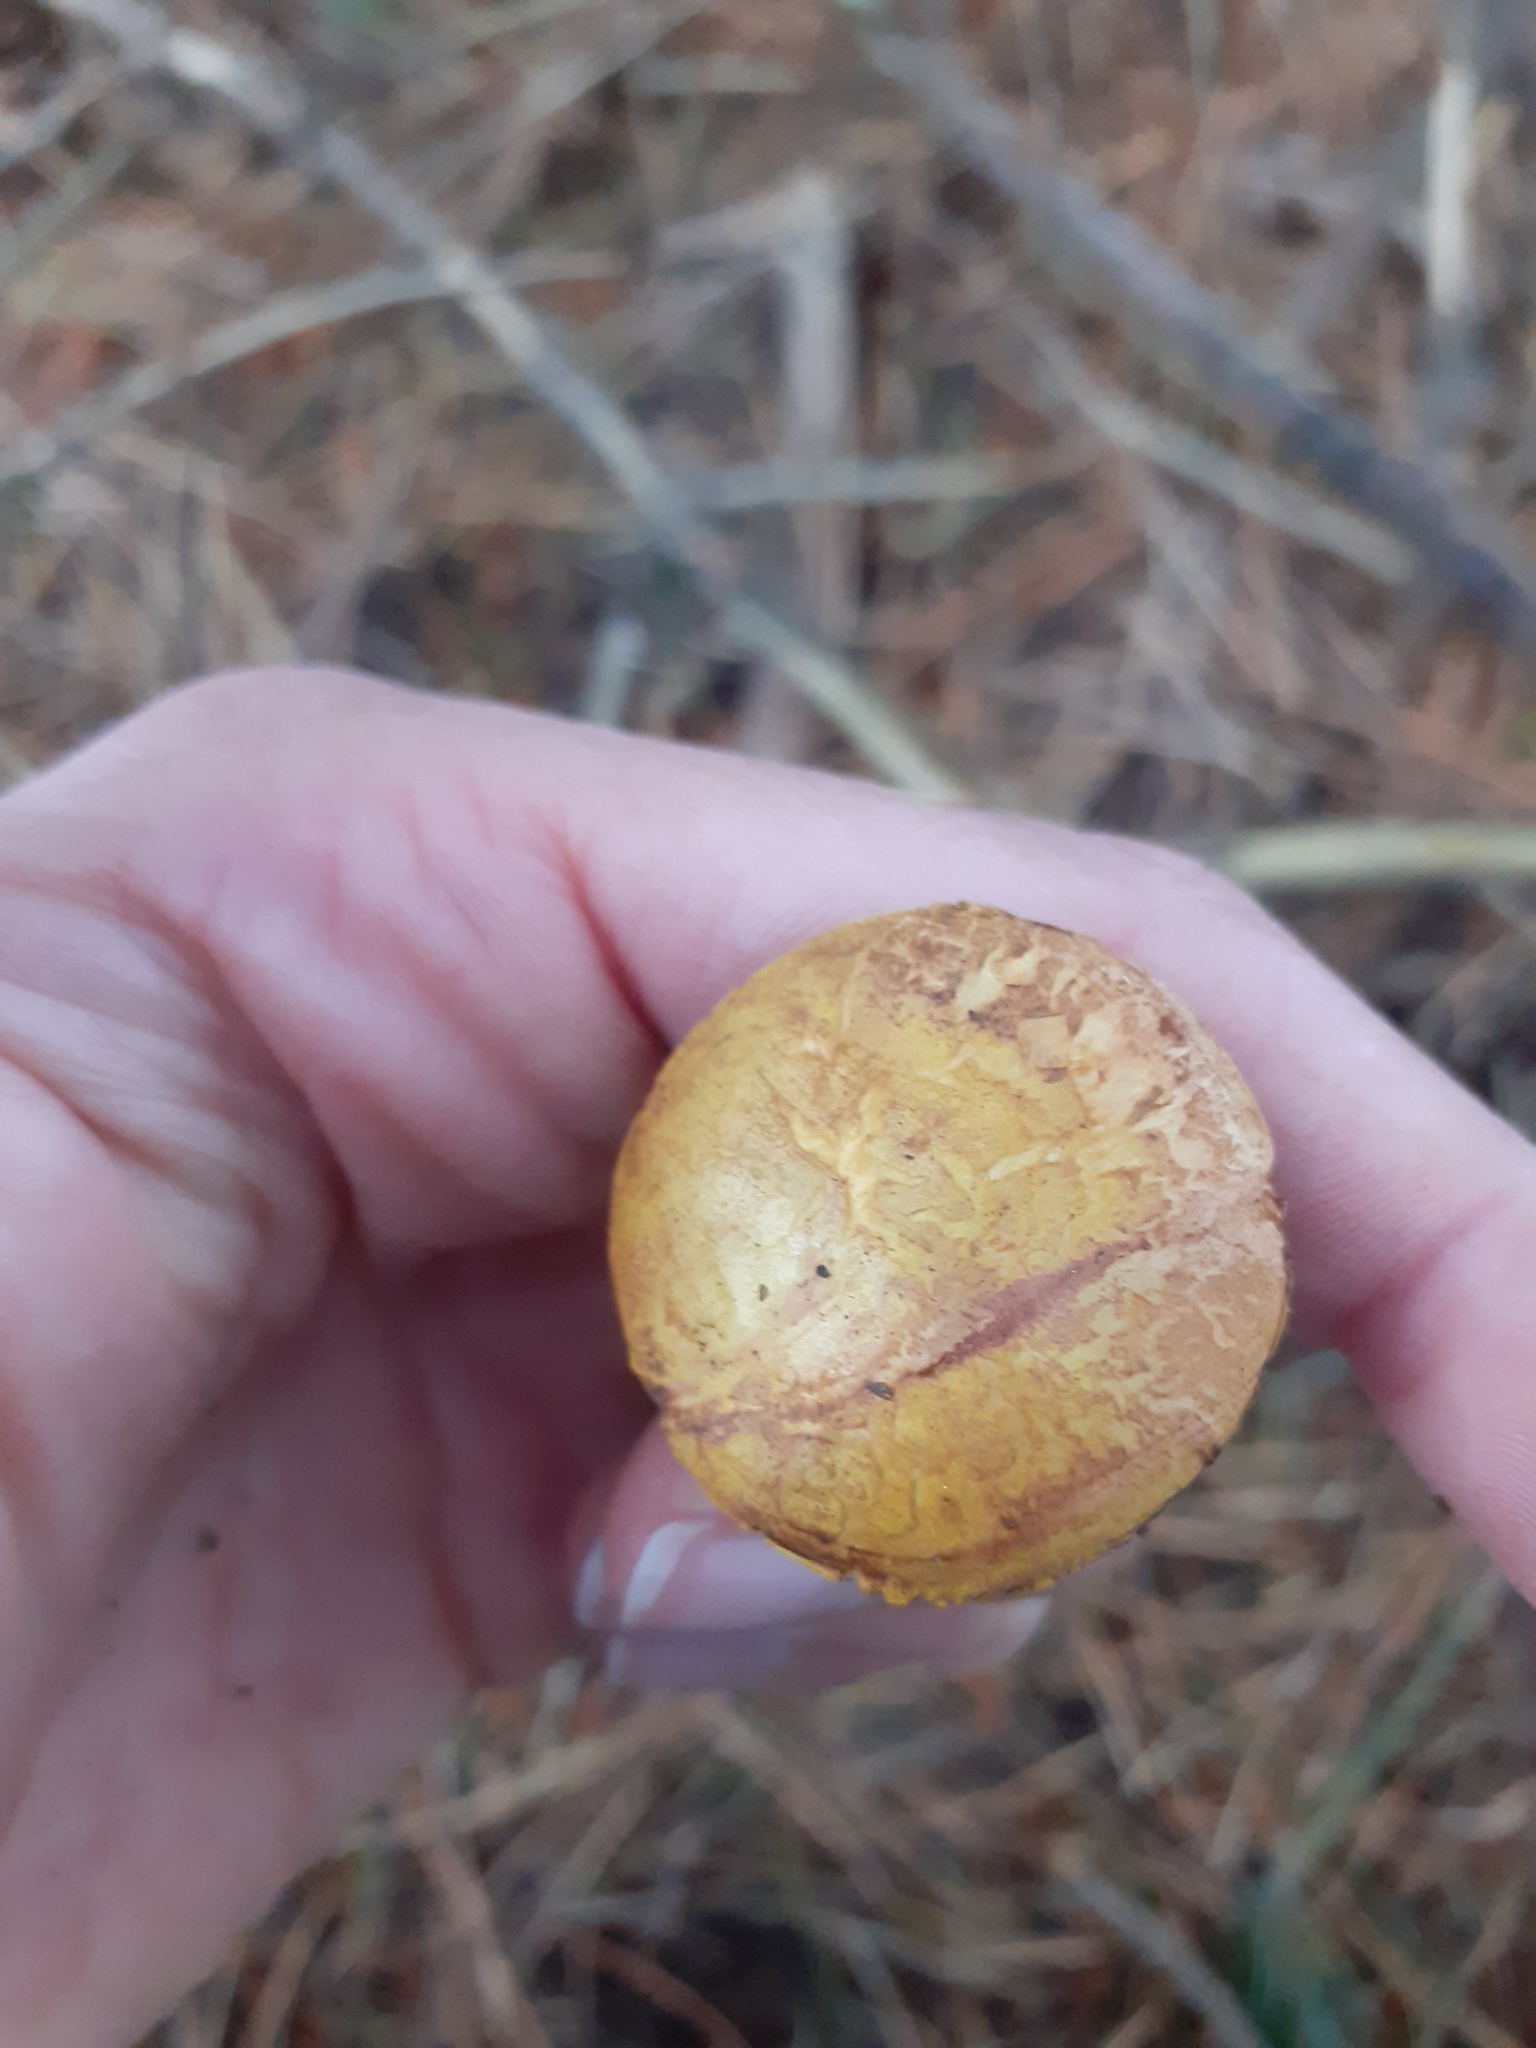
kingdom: Fungi
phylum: Basidiomycota
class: Agaricomycetes
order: Boletales
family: Boletaceae
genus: Chalciporus
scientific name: Chalciporus piperatus
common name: Peppery bolete
